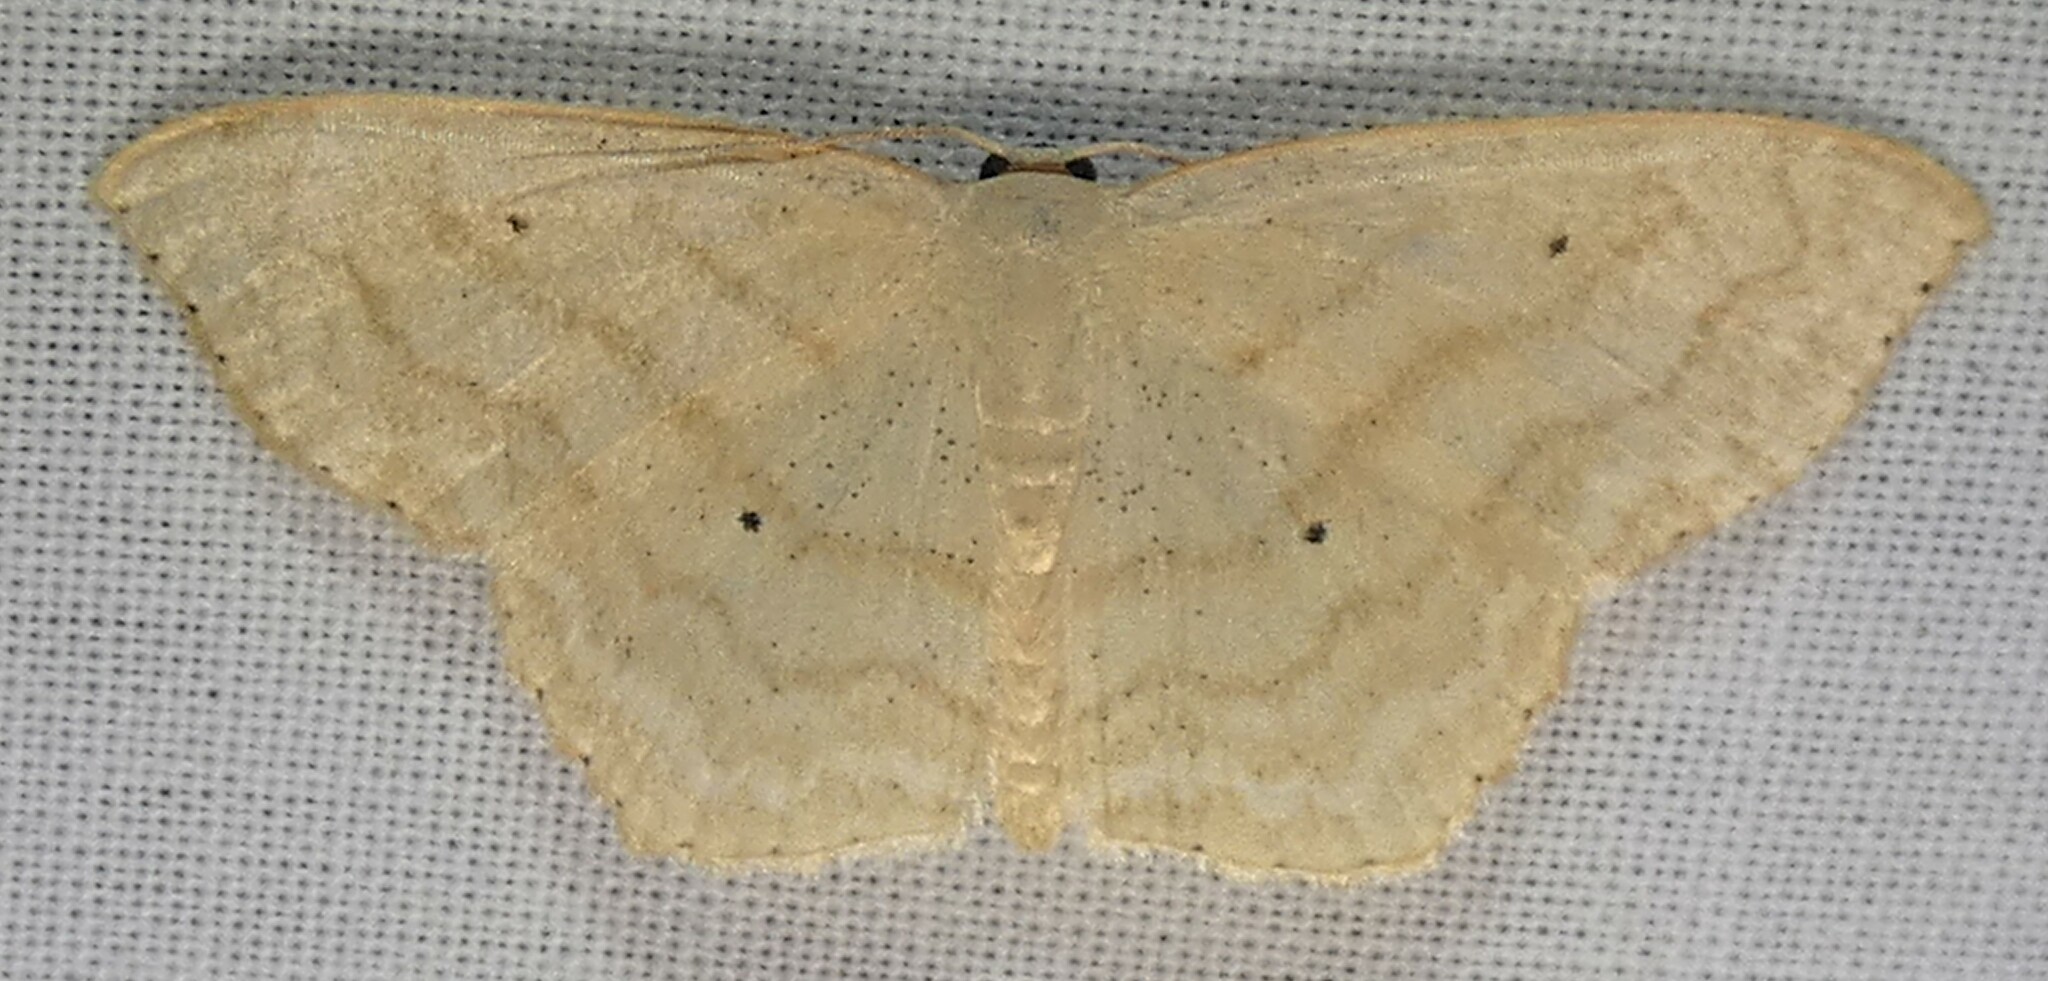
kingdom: Animalia
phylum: Arthropoda
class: Insecta
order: Lepidoptera
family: Geometridae
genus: Scopula
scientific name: Scopula limboundata
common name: Large lace border
